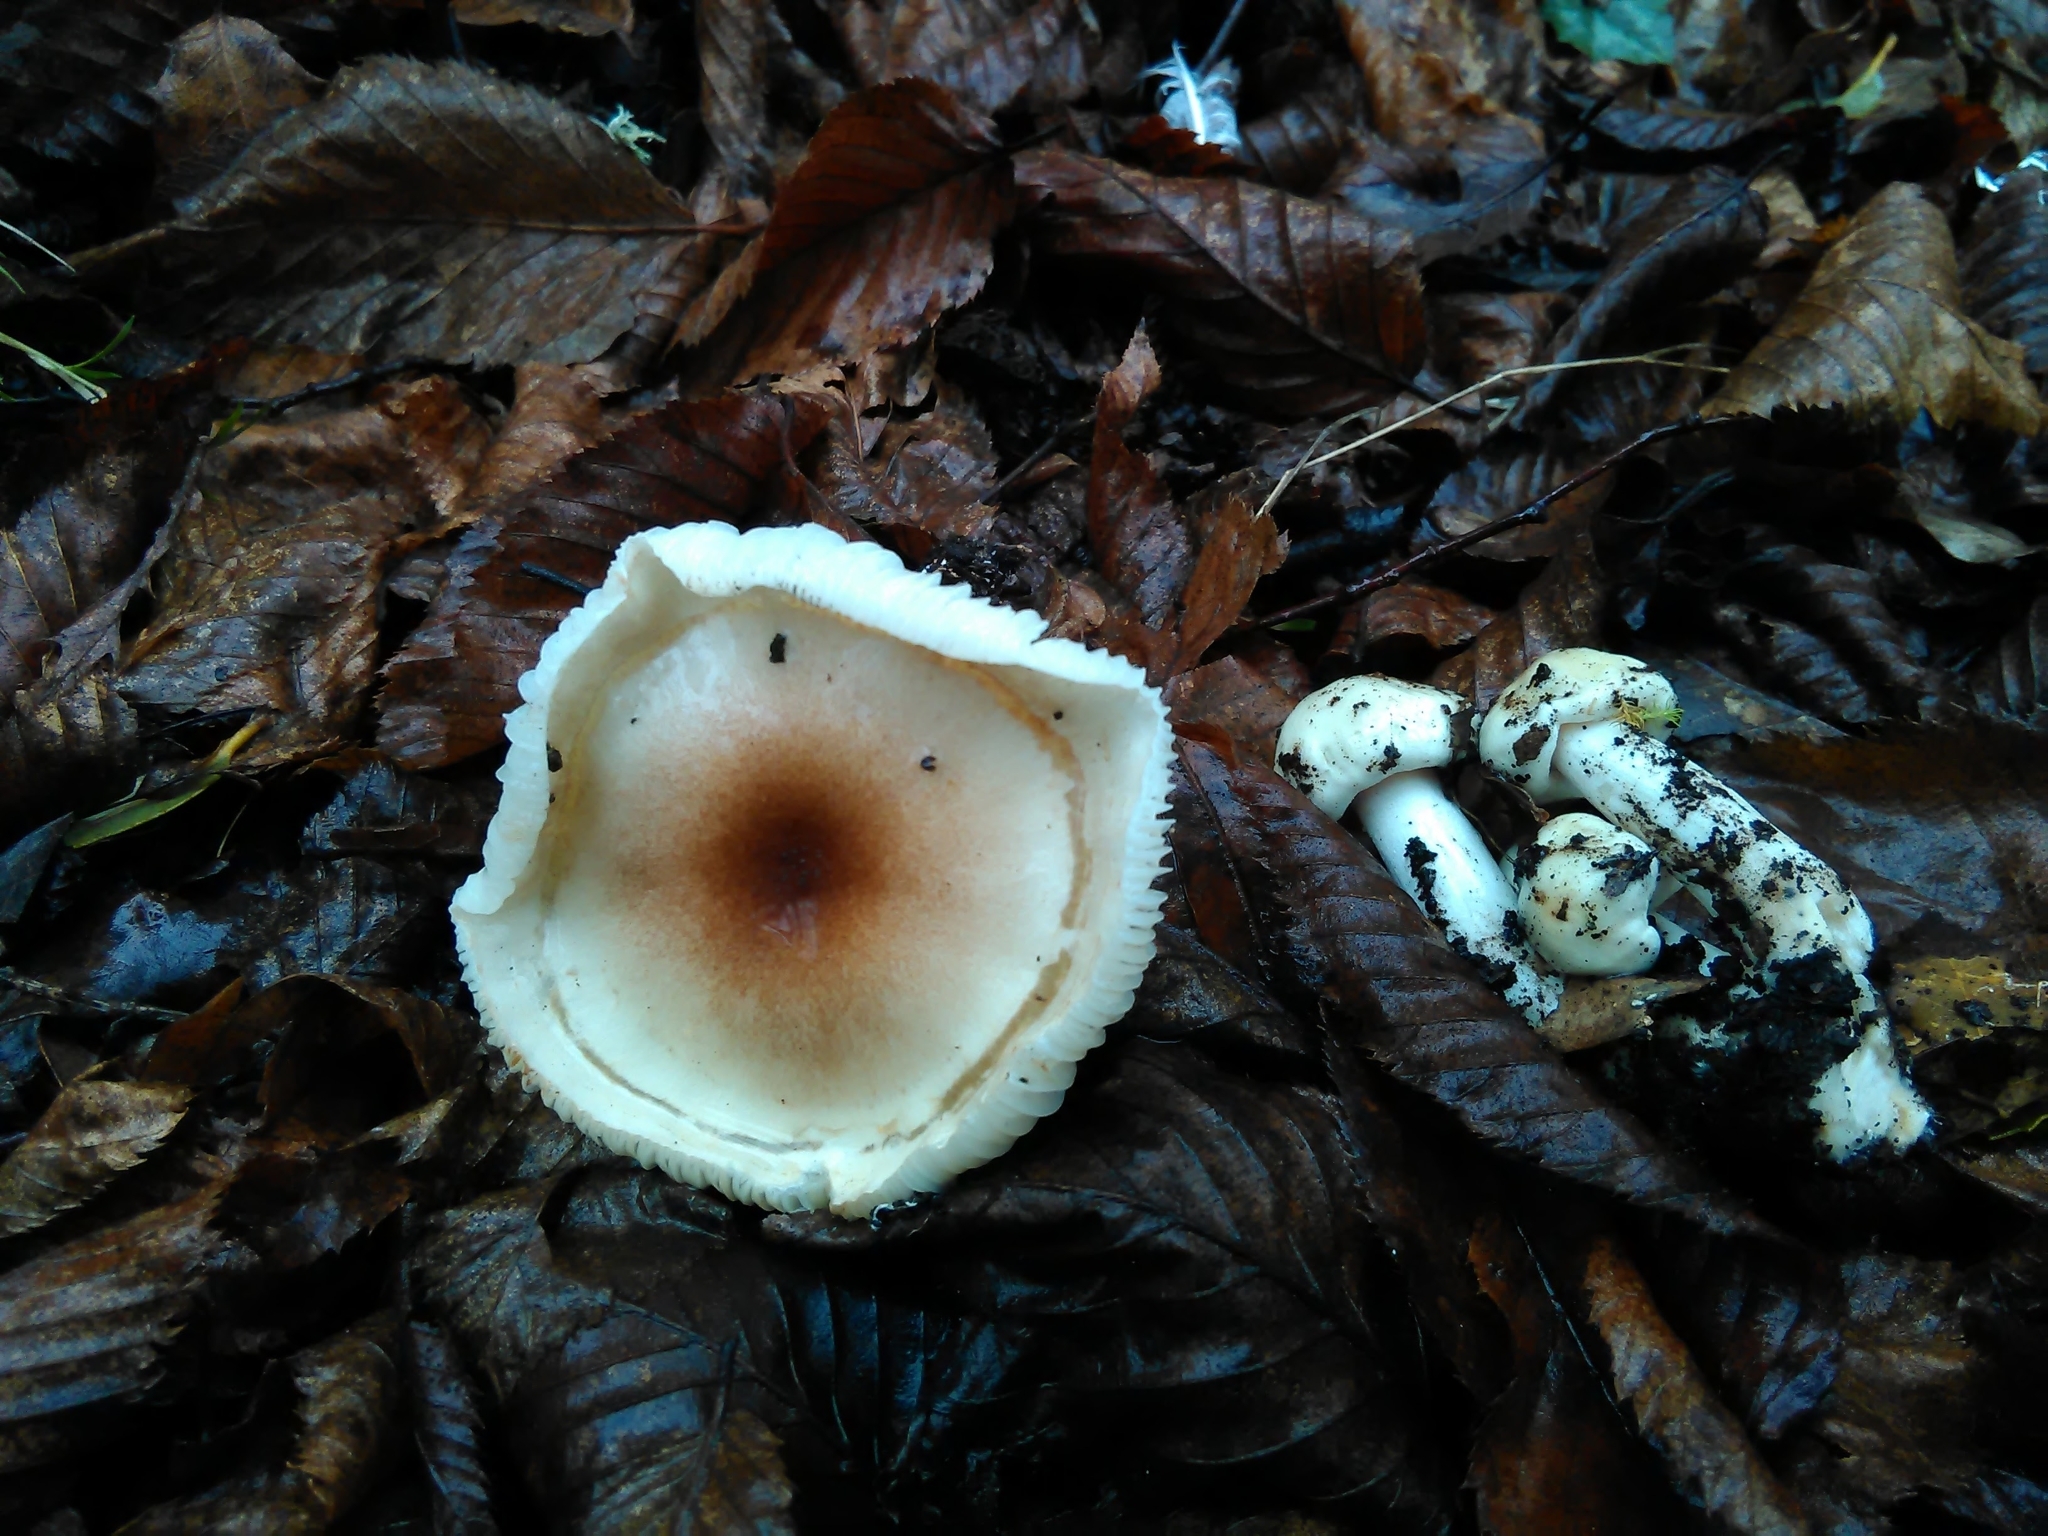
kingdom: Fungi
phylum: Basidiomycota
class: Agaricomycetes
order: Agaricales
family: Hygrophoraceae
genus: Hygrophorus
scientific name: Hygrophorus roseodiscoideus
